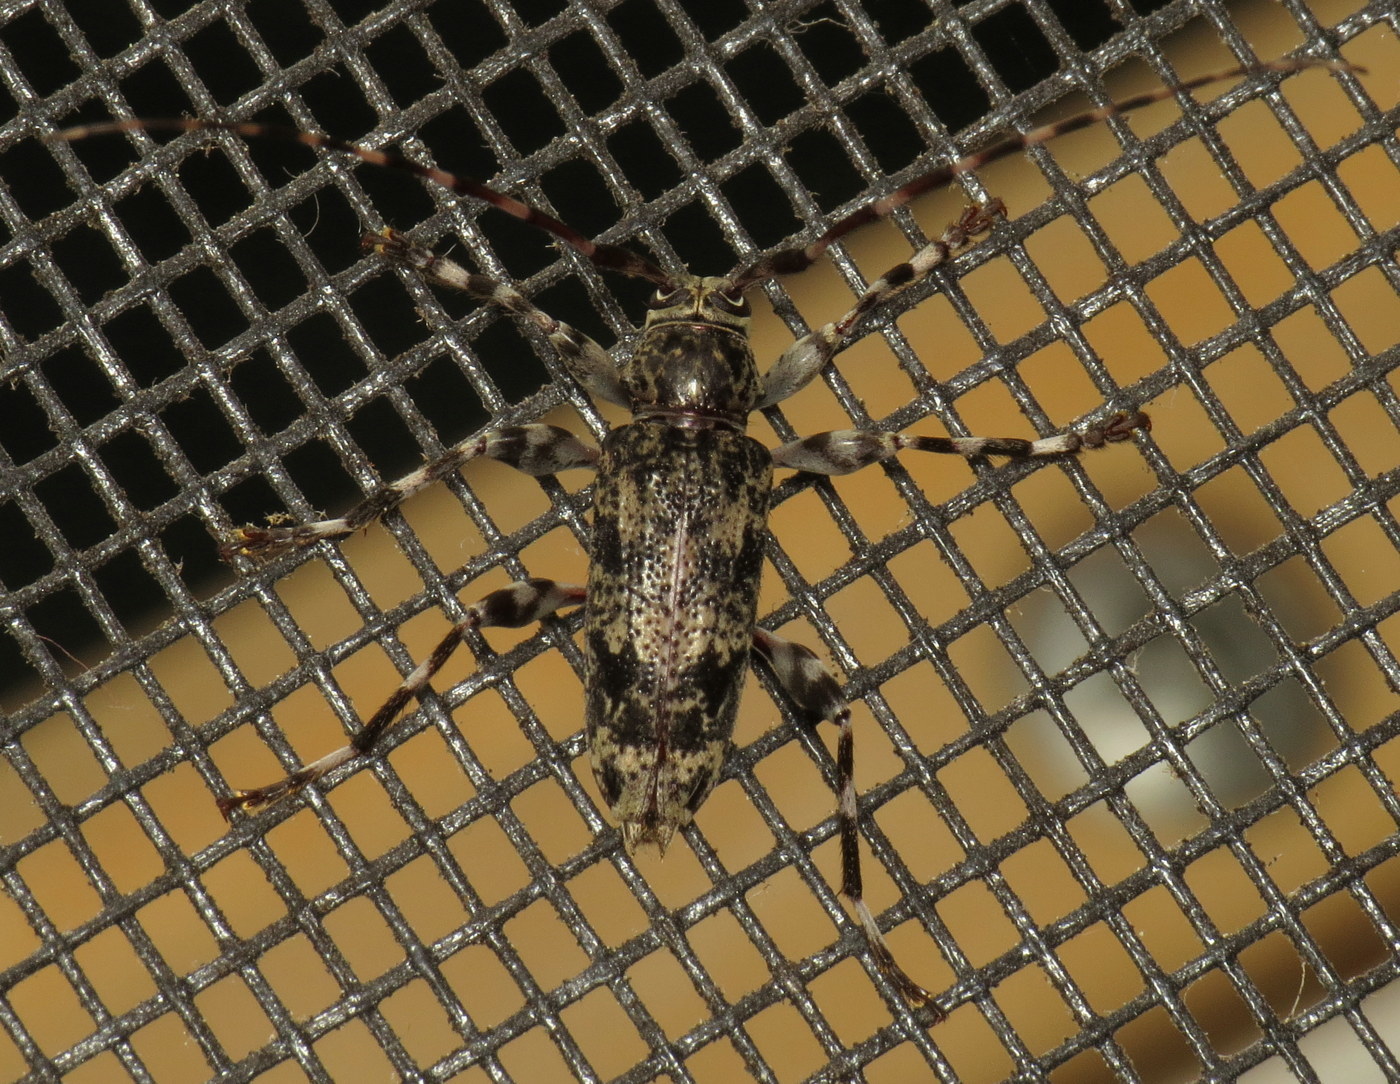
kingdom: Animalia
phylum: Arthropoda
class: Insecta
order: Coleoptera
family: Cerambycidae
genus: Graphisurus
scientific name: Graphisurus fasciatus
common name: Banded graphisurus
